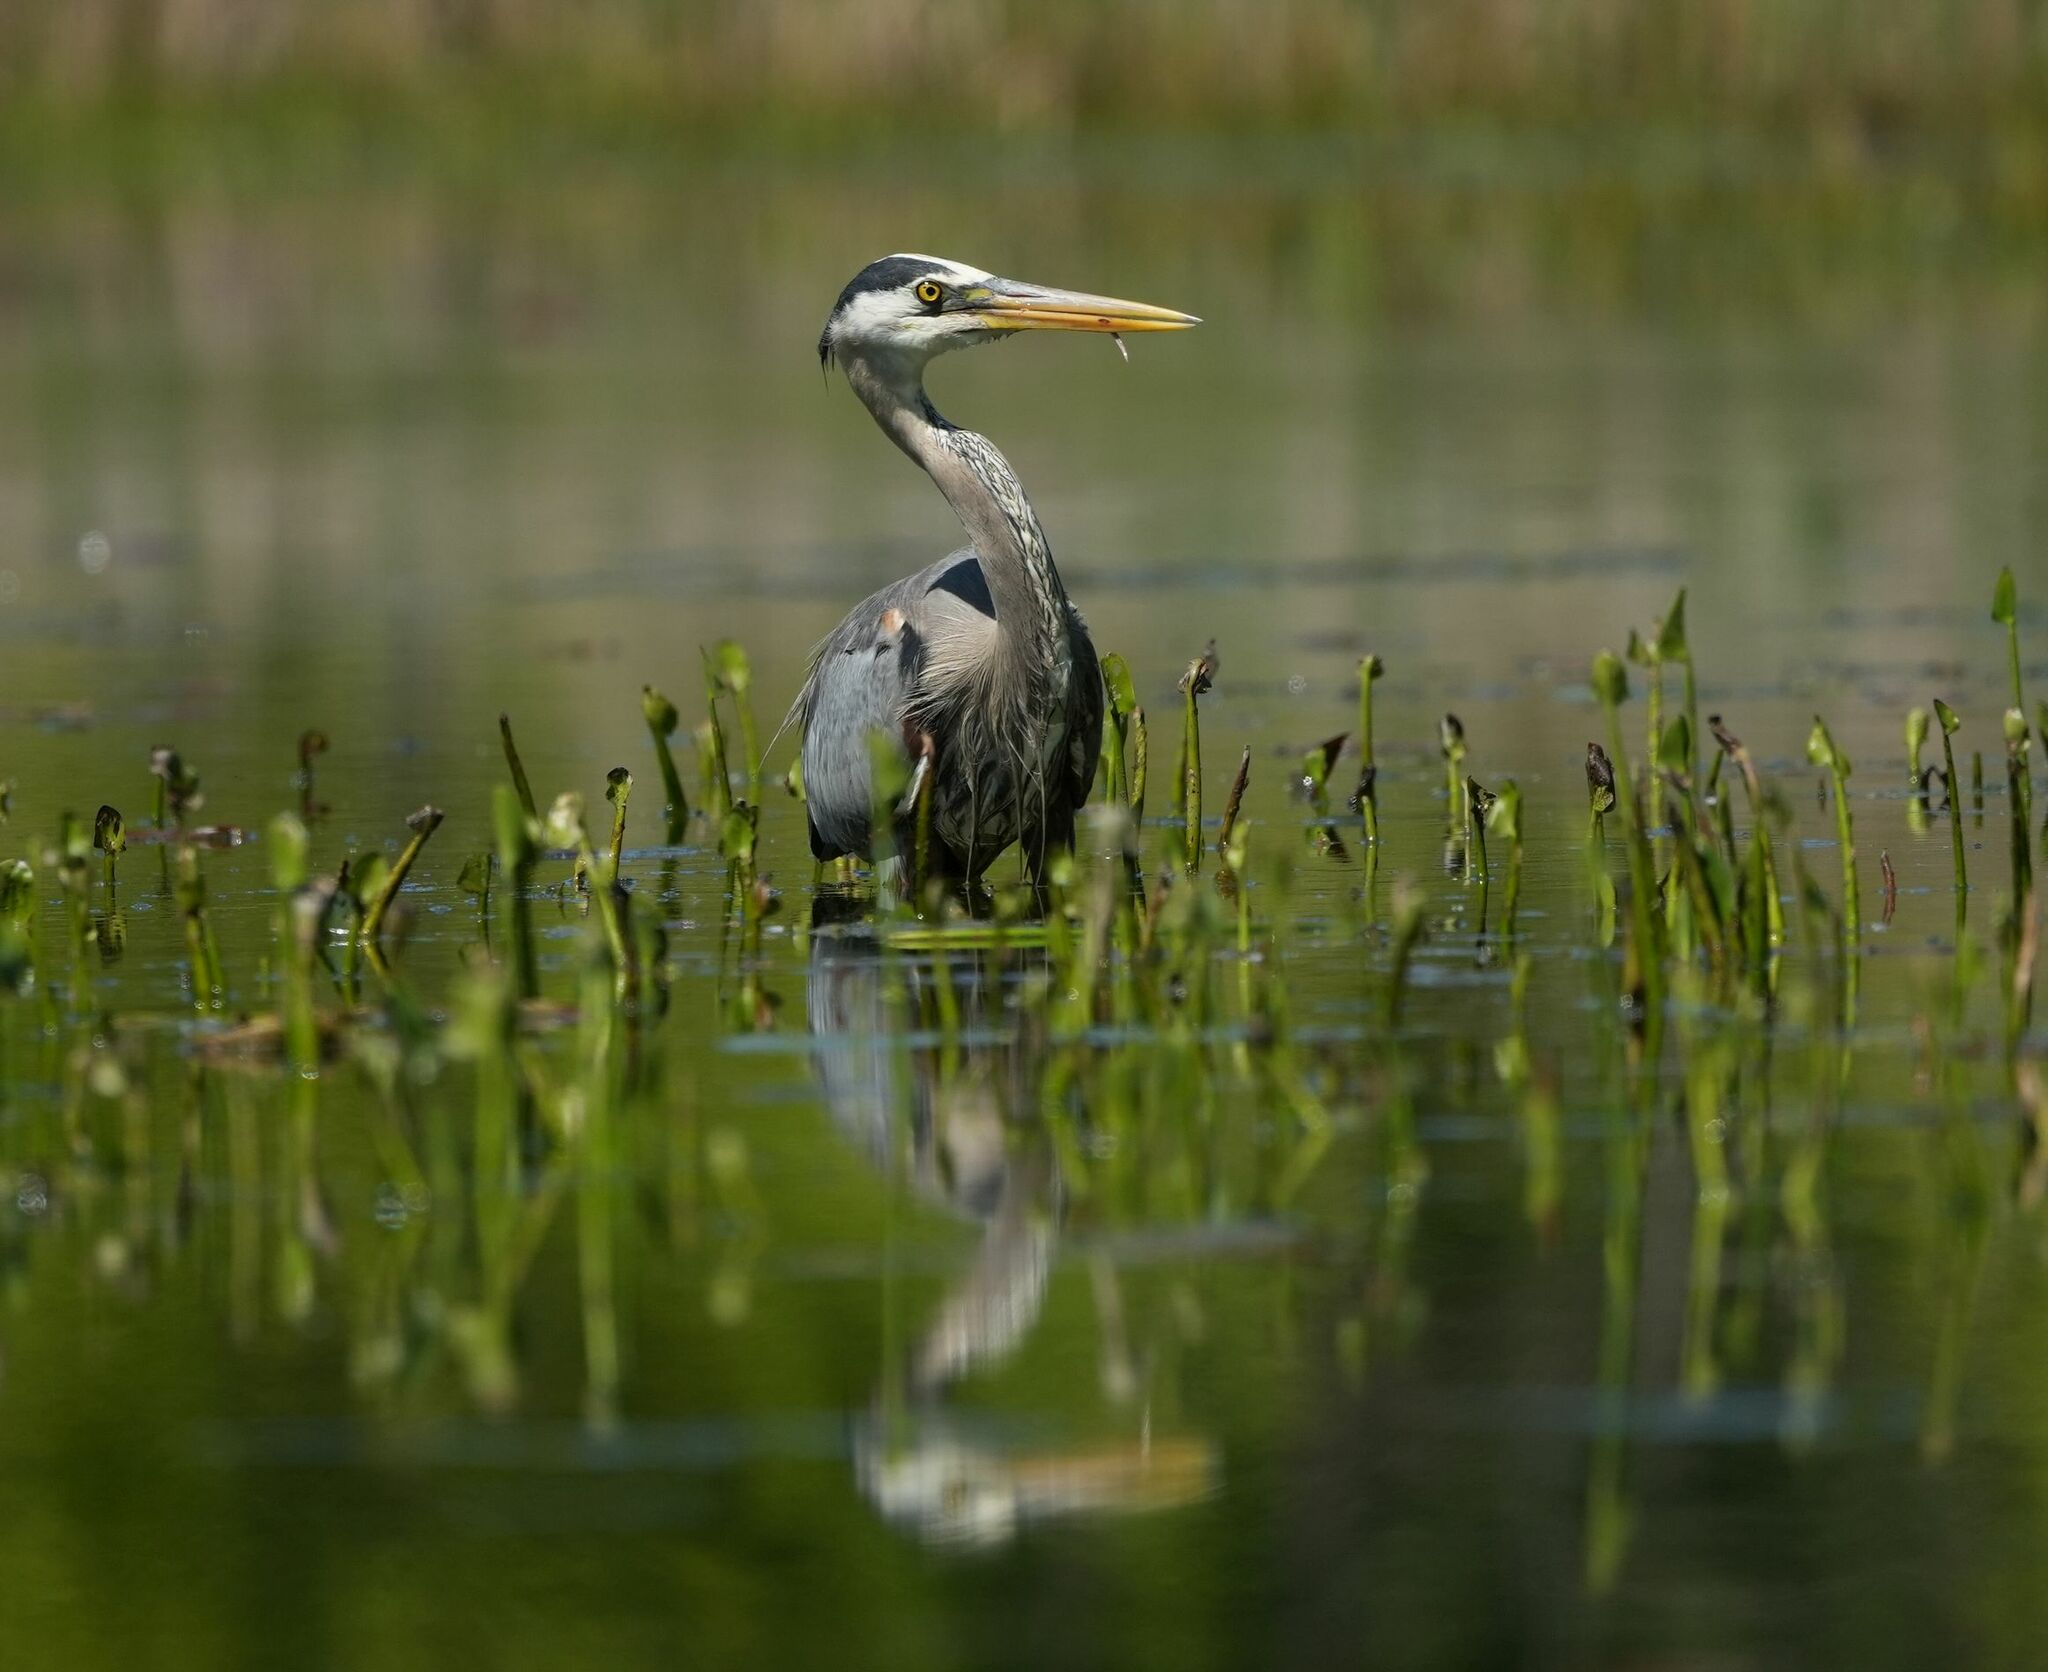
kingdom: Animalia
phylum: Chordata
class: Aves
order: Pelecaniformes
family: Ardeidae
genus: Ardea
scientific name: Ardea herodias
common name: Great blue heron
